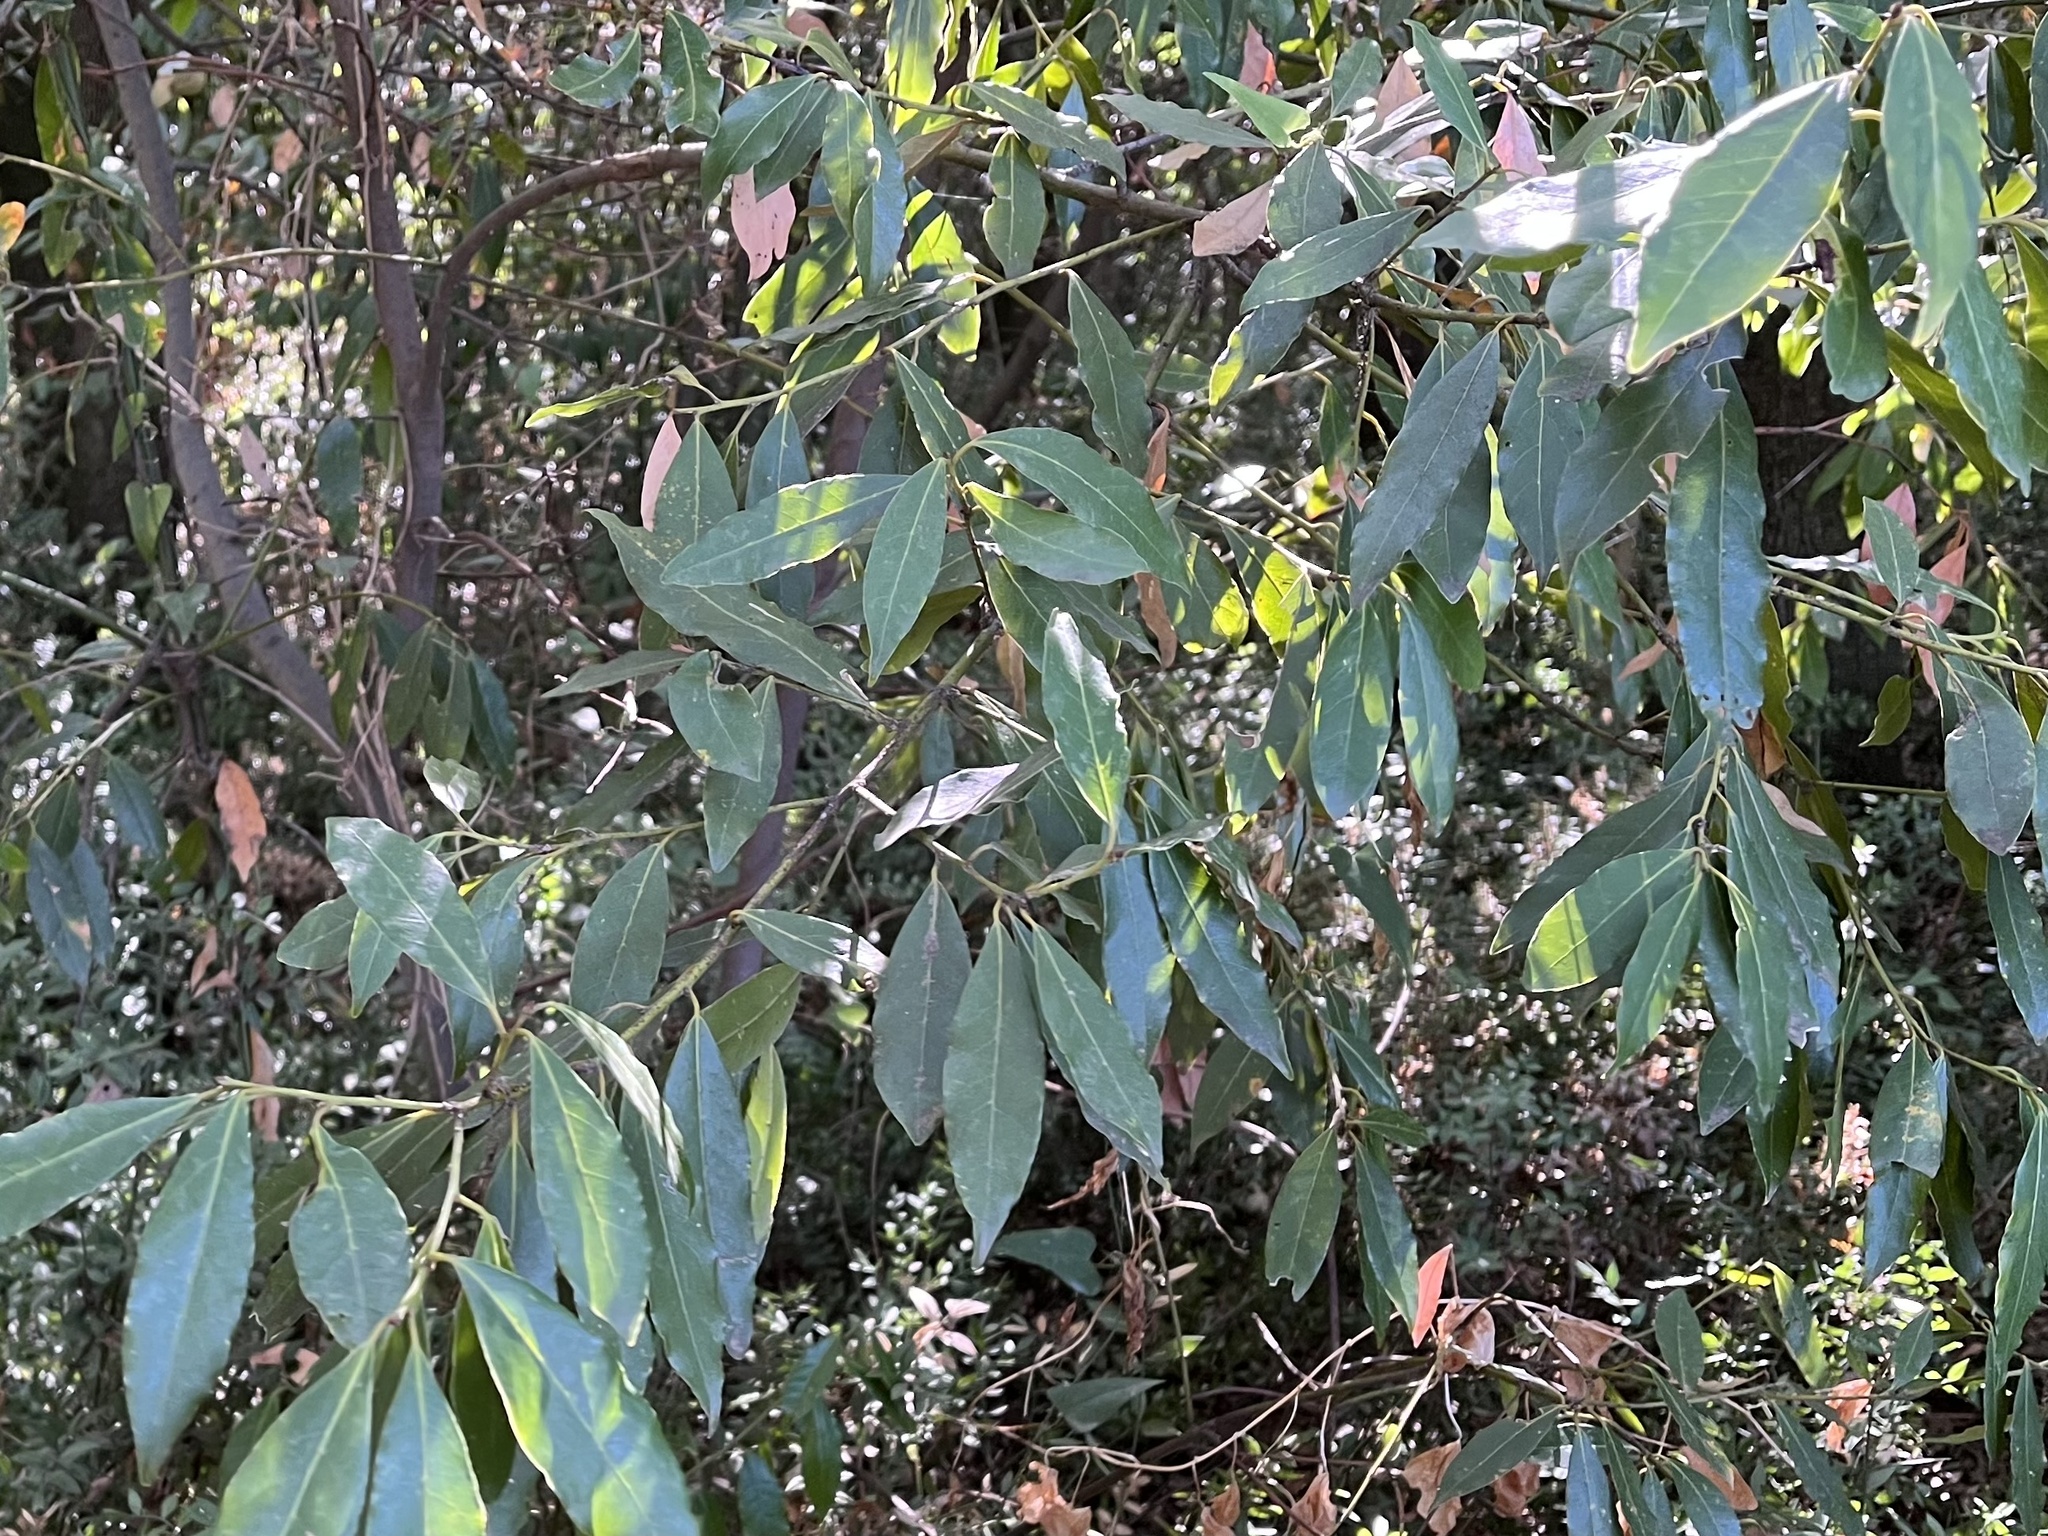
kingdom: Plantae
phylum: Tracheophyta
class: Magnoliopsida
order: Laurales
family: Lauraceae
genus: Laurus
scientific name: Laurus nobilis
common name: Bay
